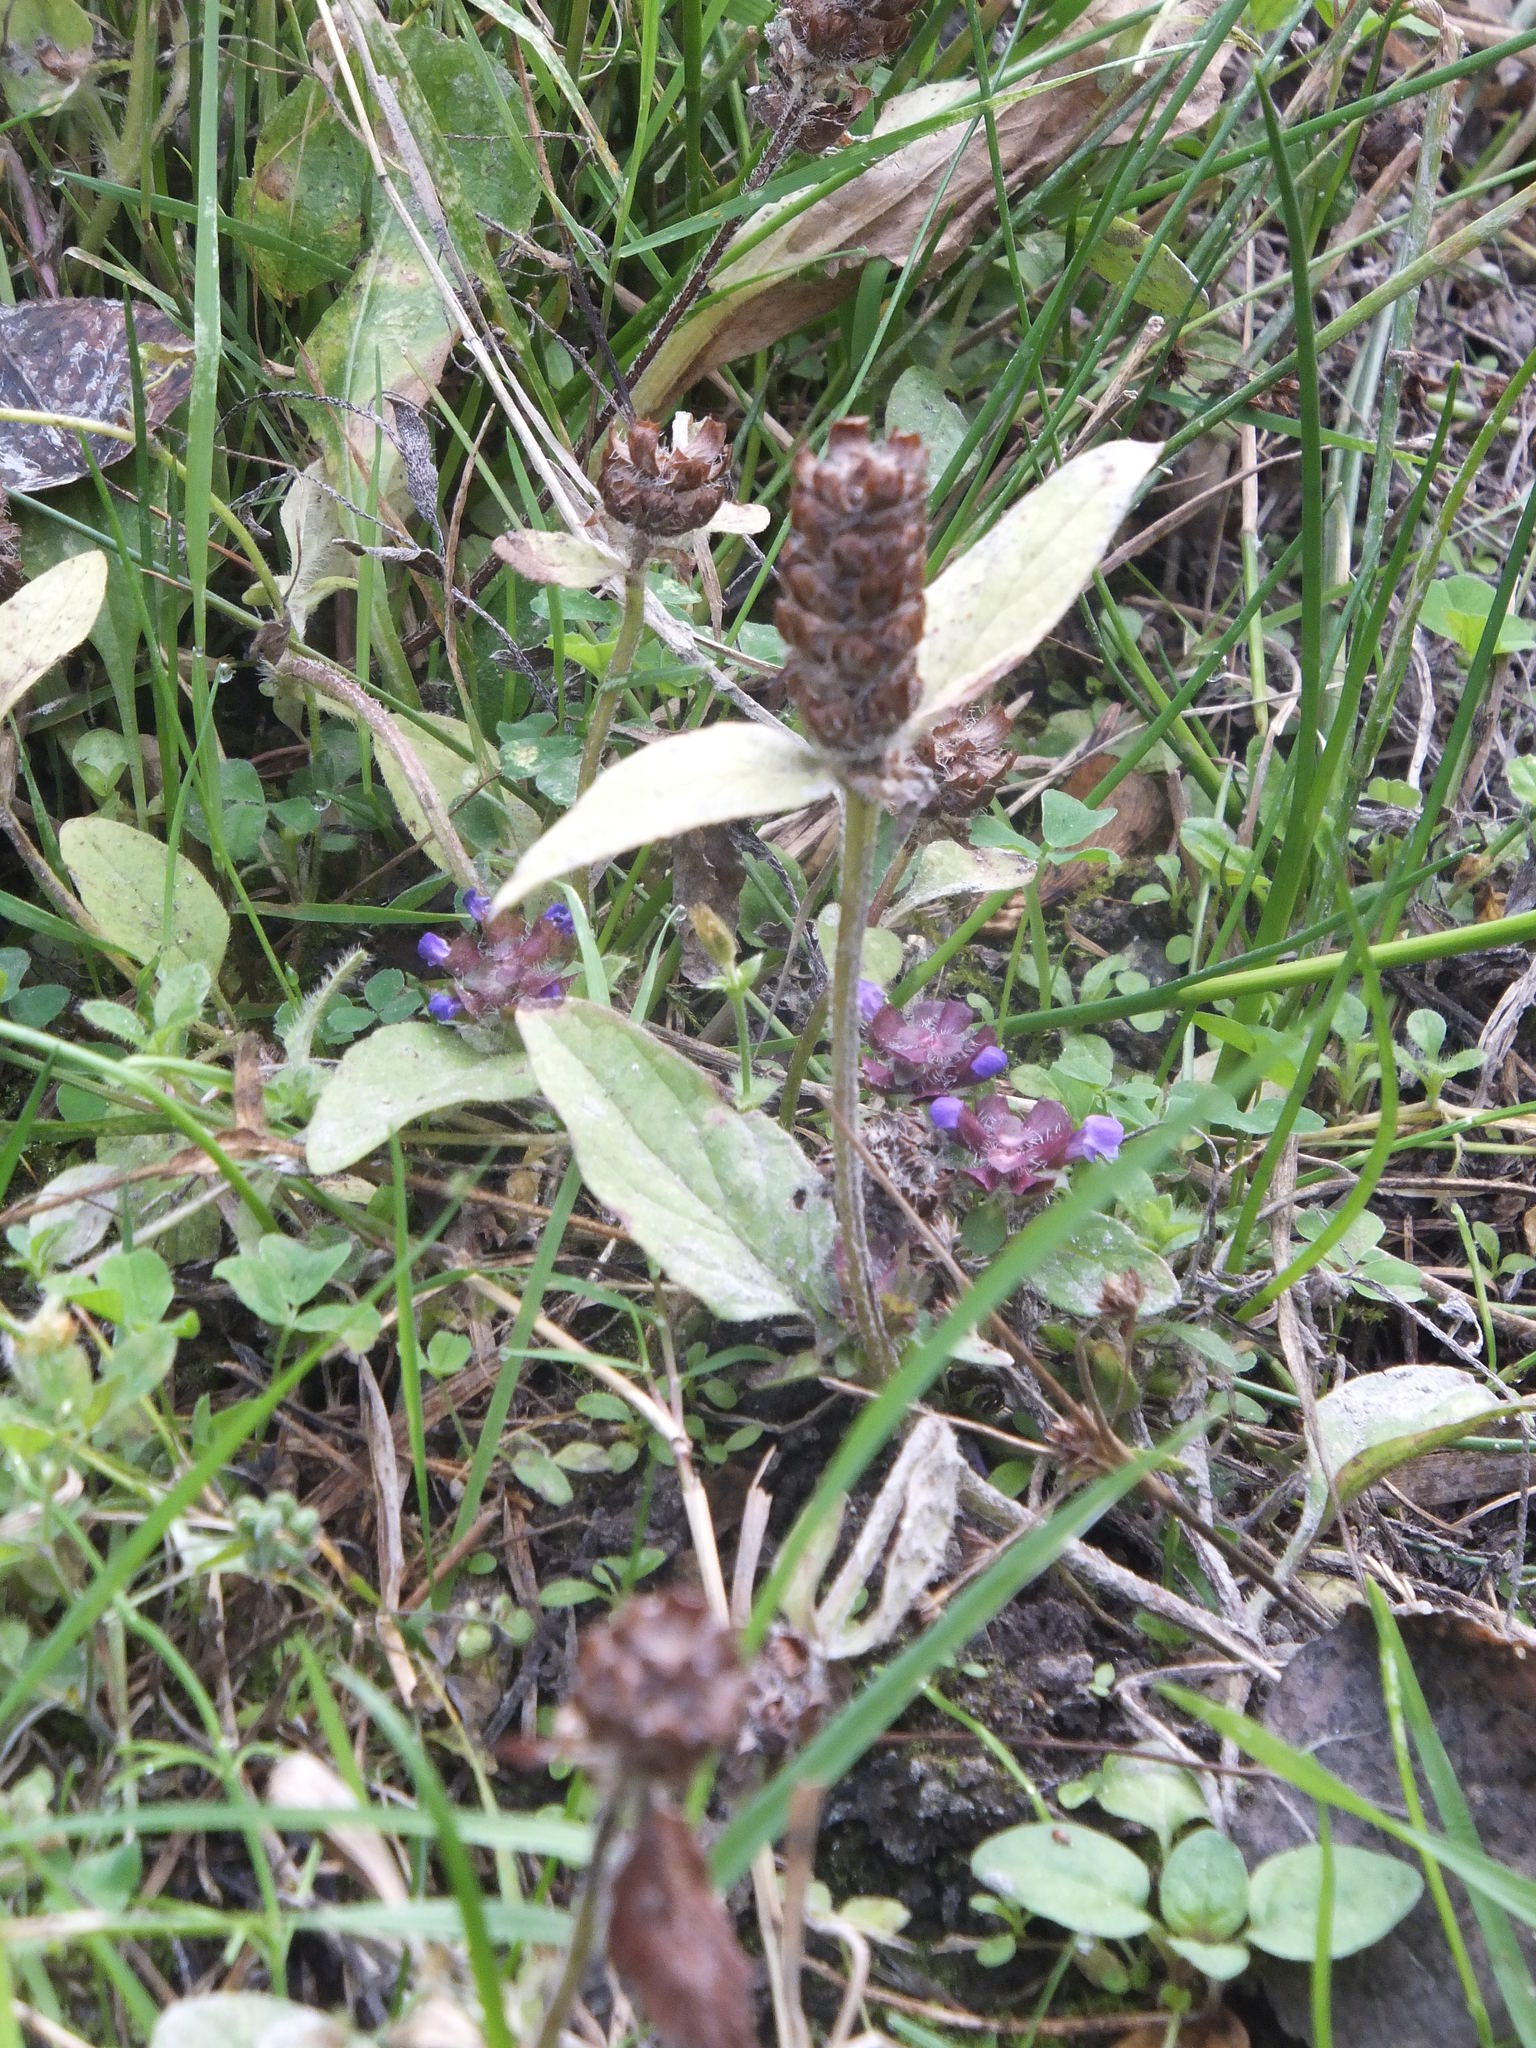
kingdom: Plantae
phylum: Tracheophyta
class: Magnoliopsida
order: Lamiales
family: Lamiaceae
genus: Prunella
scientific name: Prunella vulgaris
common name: Heal-all
